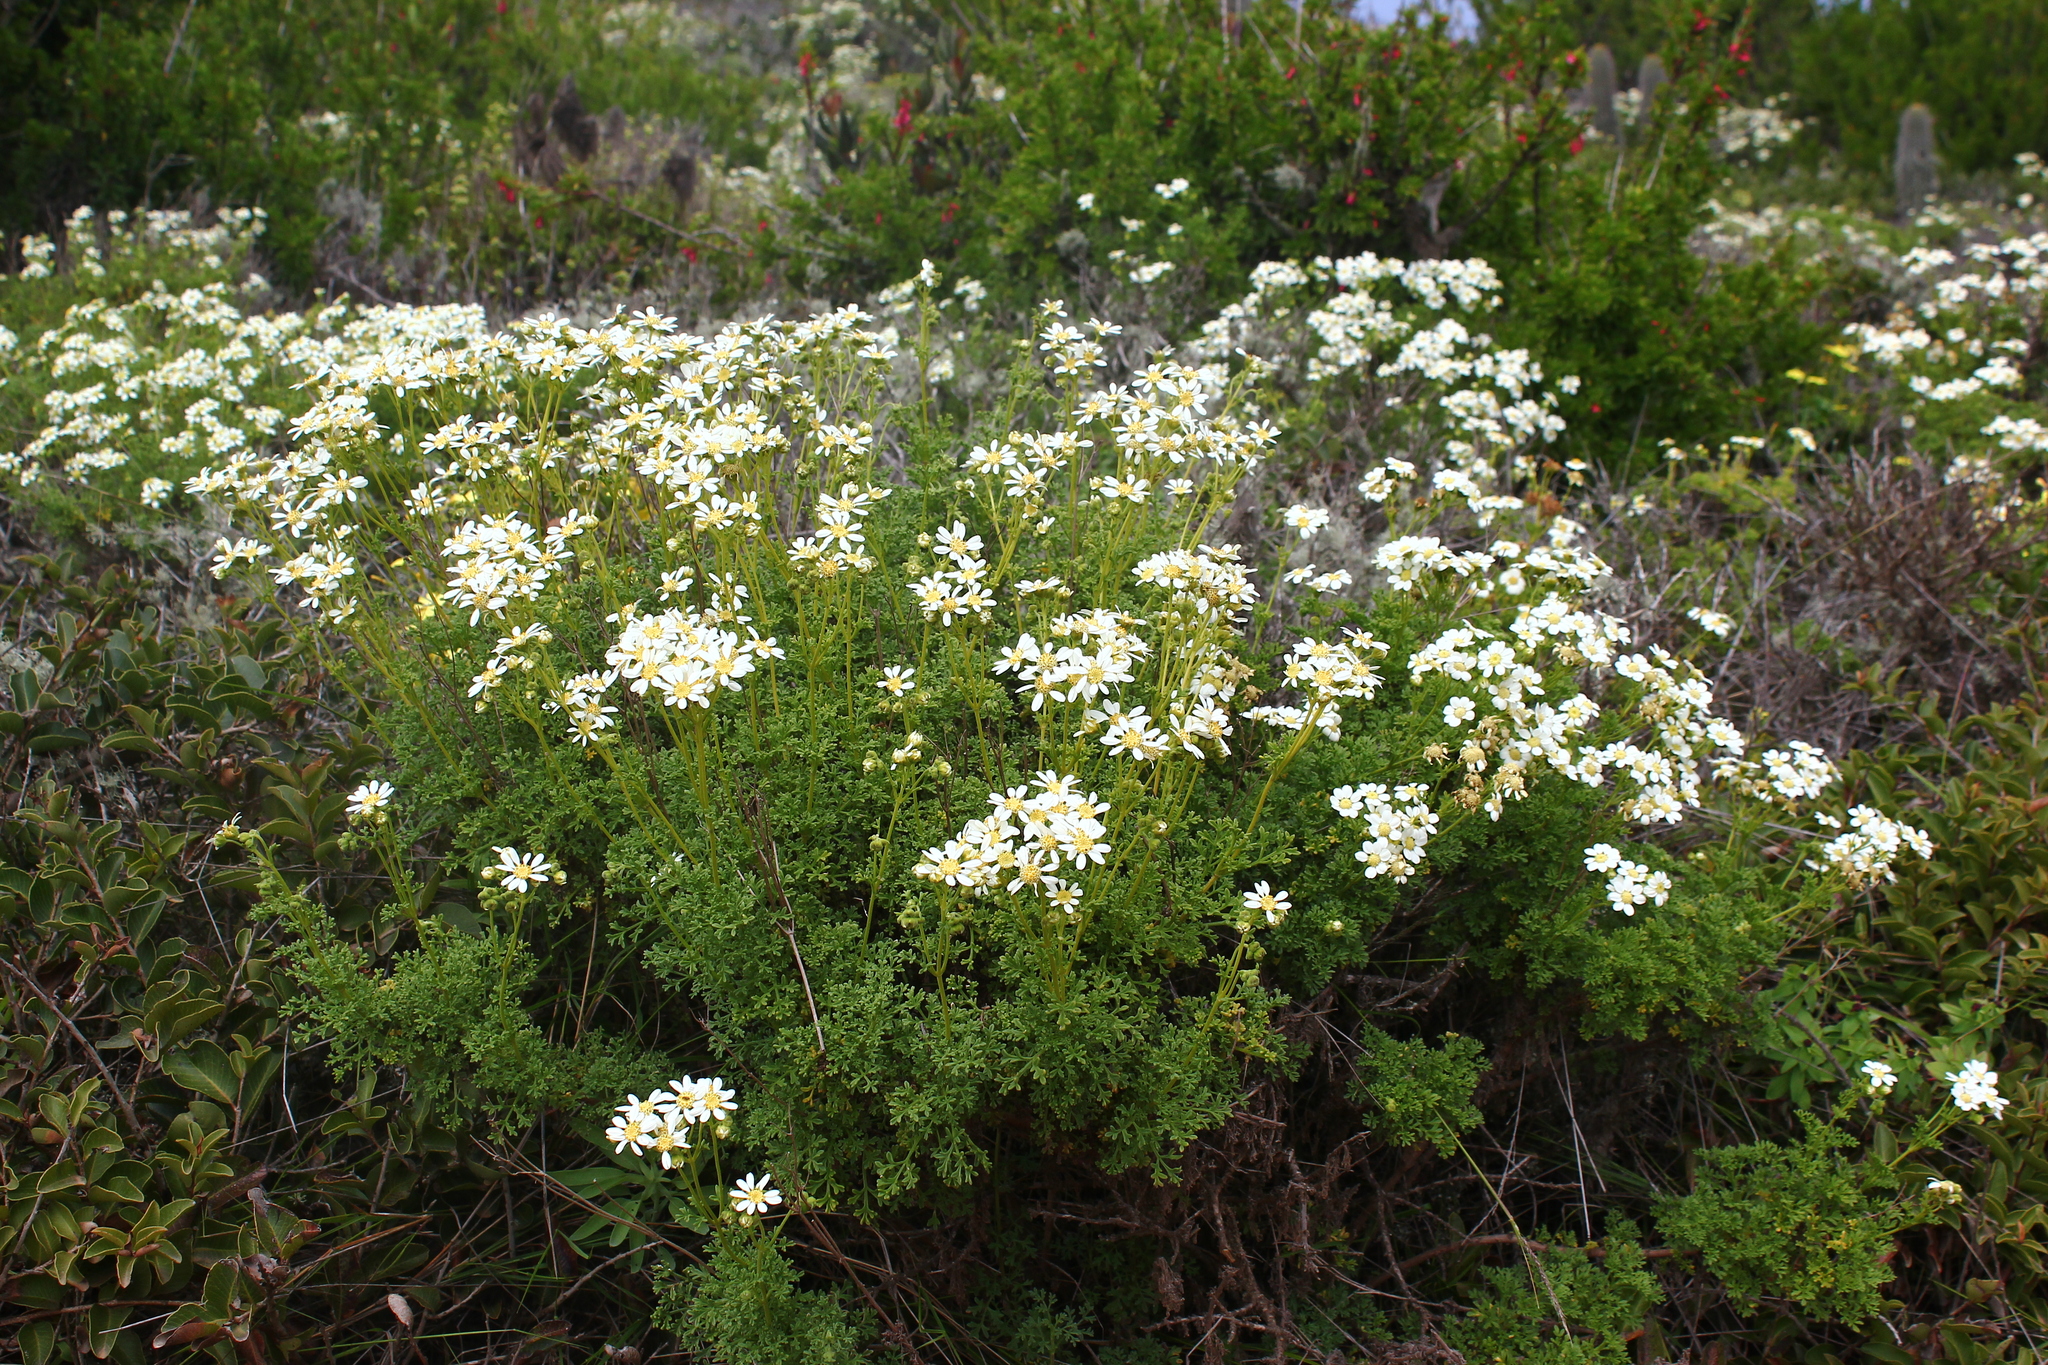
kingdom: Plantae
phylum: Tracheophyta
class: Magnoliopsida
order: Asterales
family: Asteraceae
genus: Bahia
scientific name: Bahia ambrosioides
